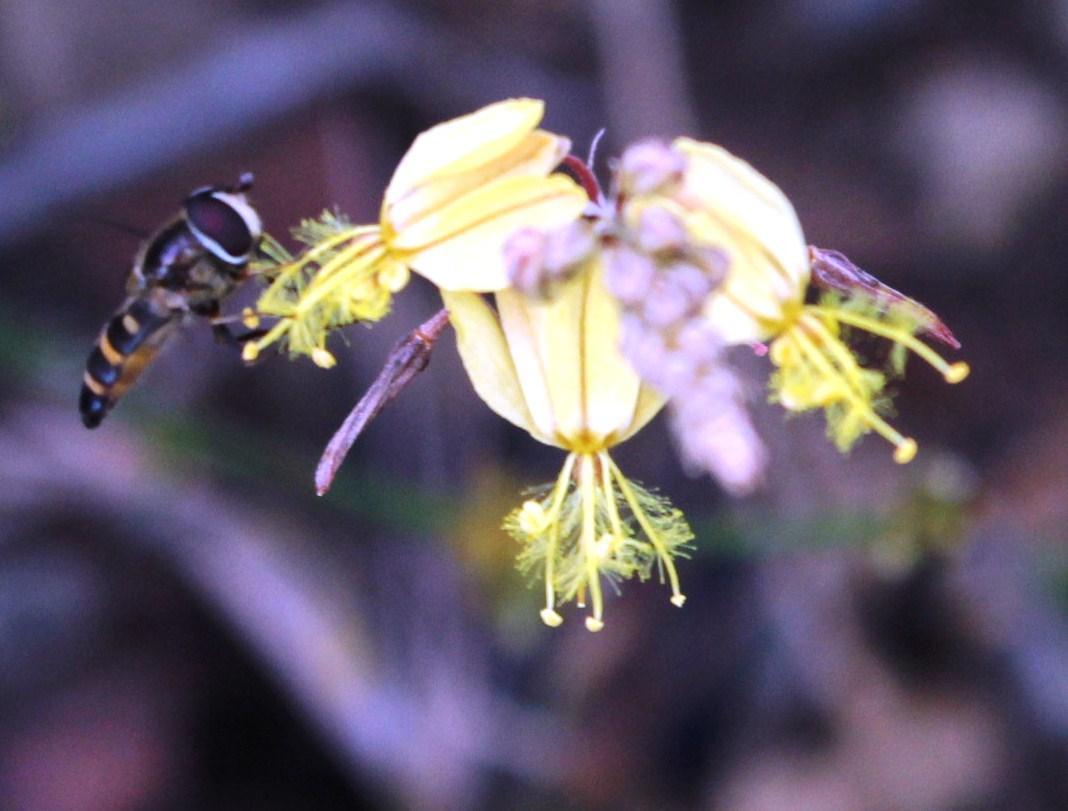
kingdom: Plantae
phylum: Tracheophyta
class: Liliopsida
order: Asparagales
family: Asphodelaceae
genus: Bulbine
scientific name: Bulbine cepacea
